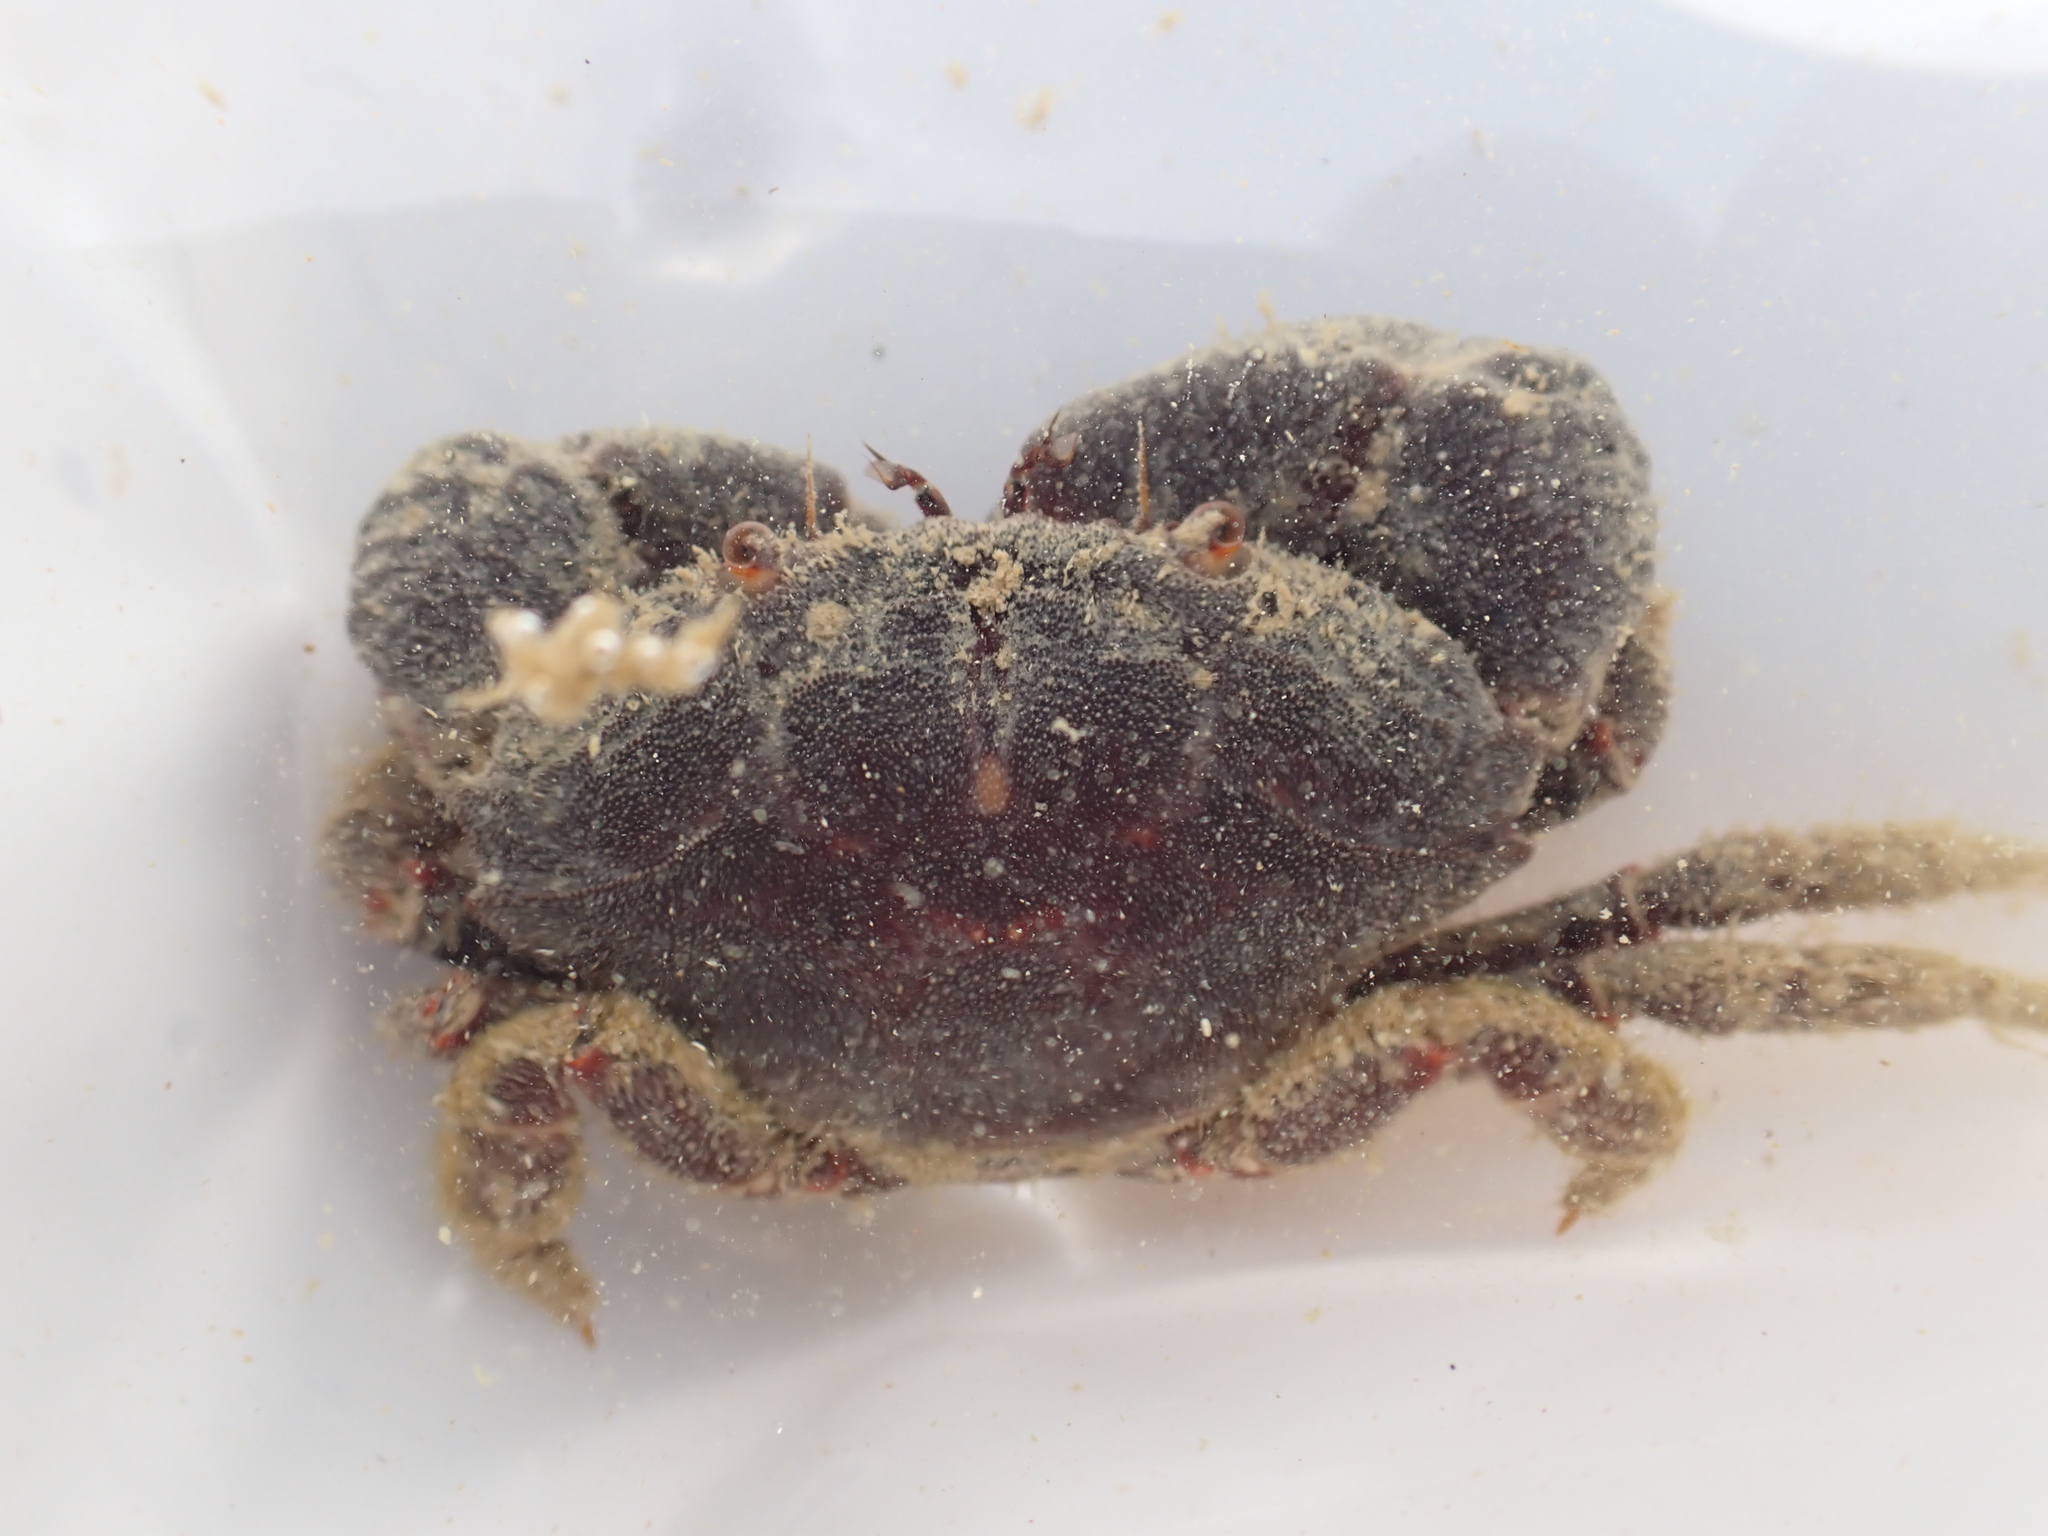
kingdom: Animalia
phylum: Arthropoda
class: Malacostraca
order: Decapoda
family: Oziidae
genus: Ozius
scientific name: Ozius deplanatus
